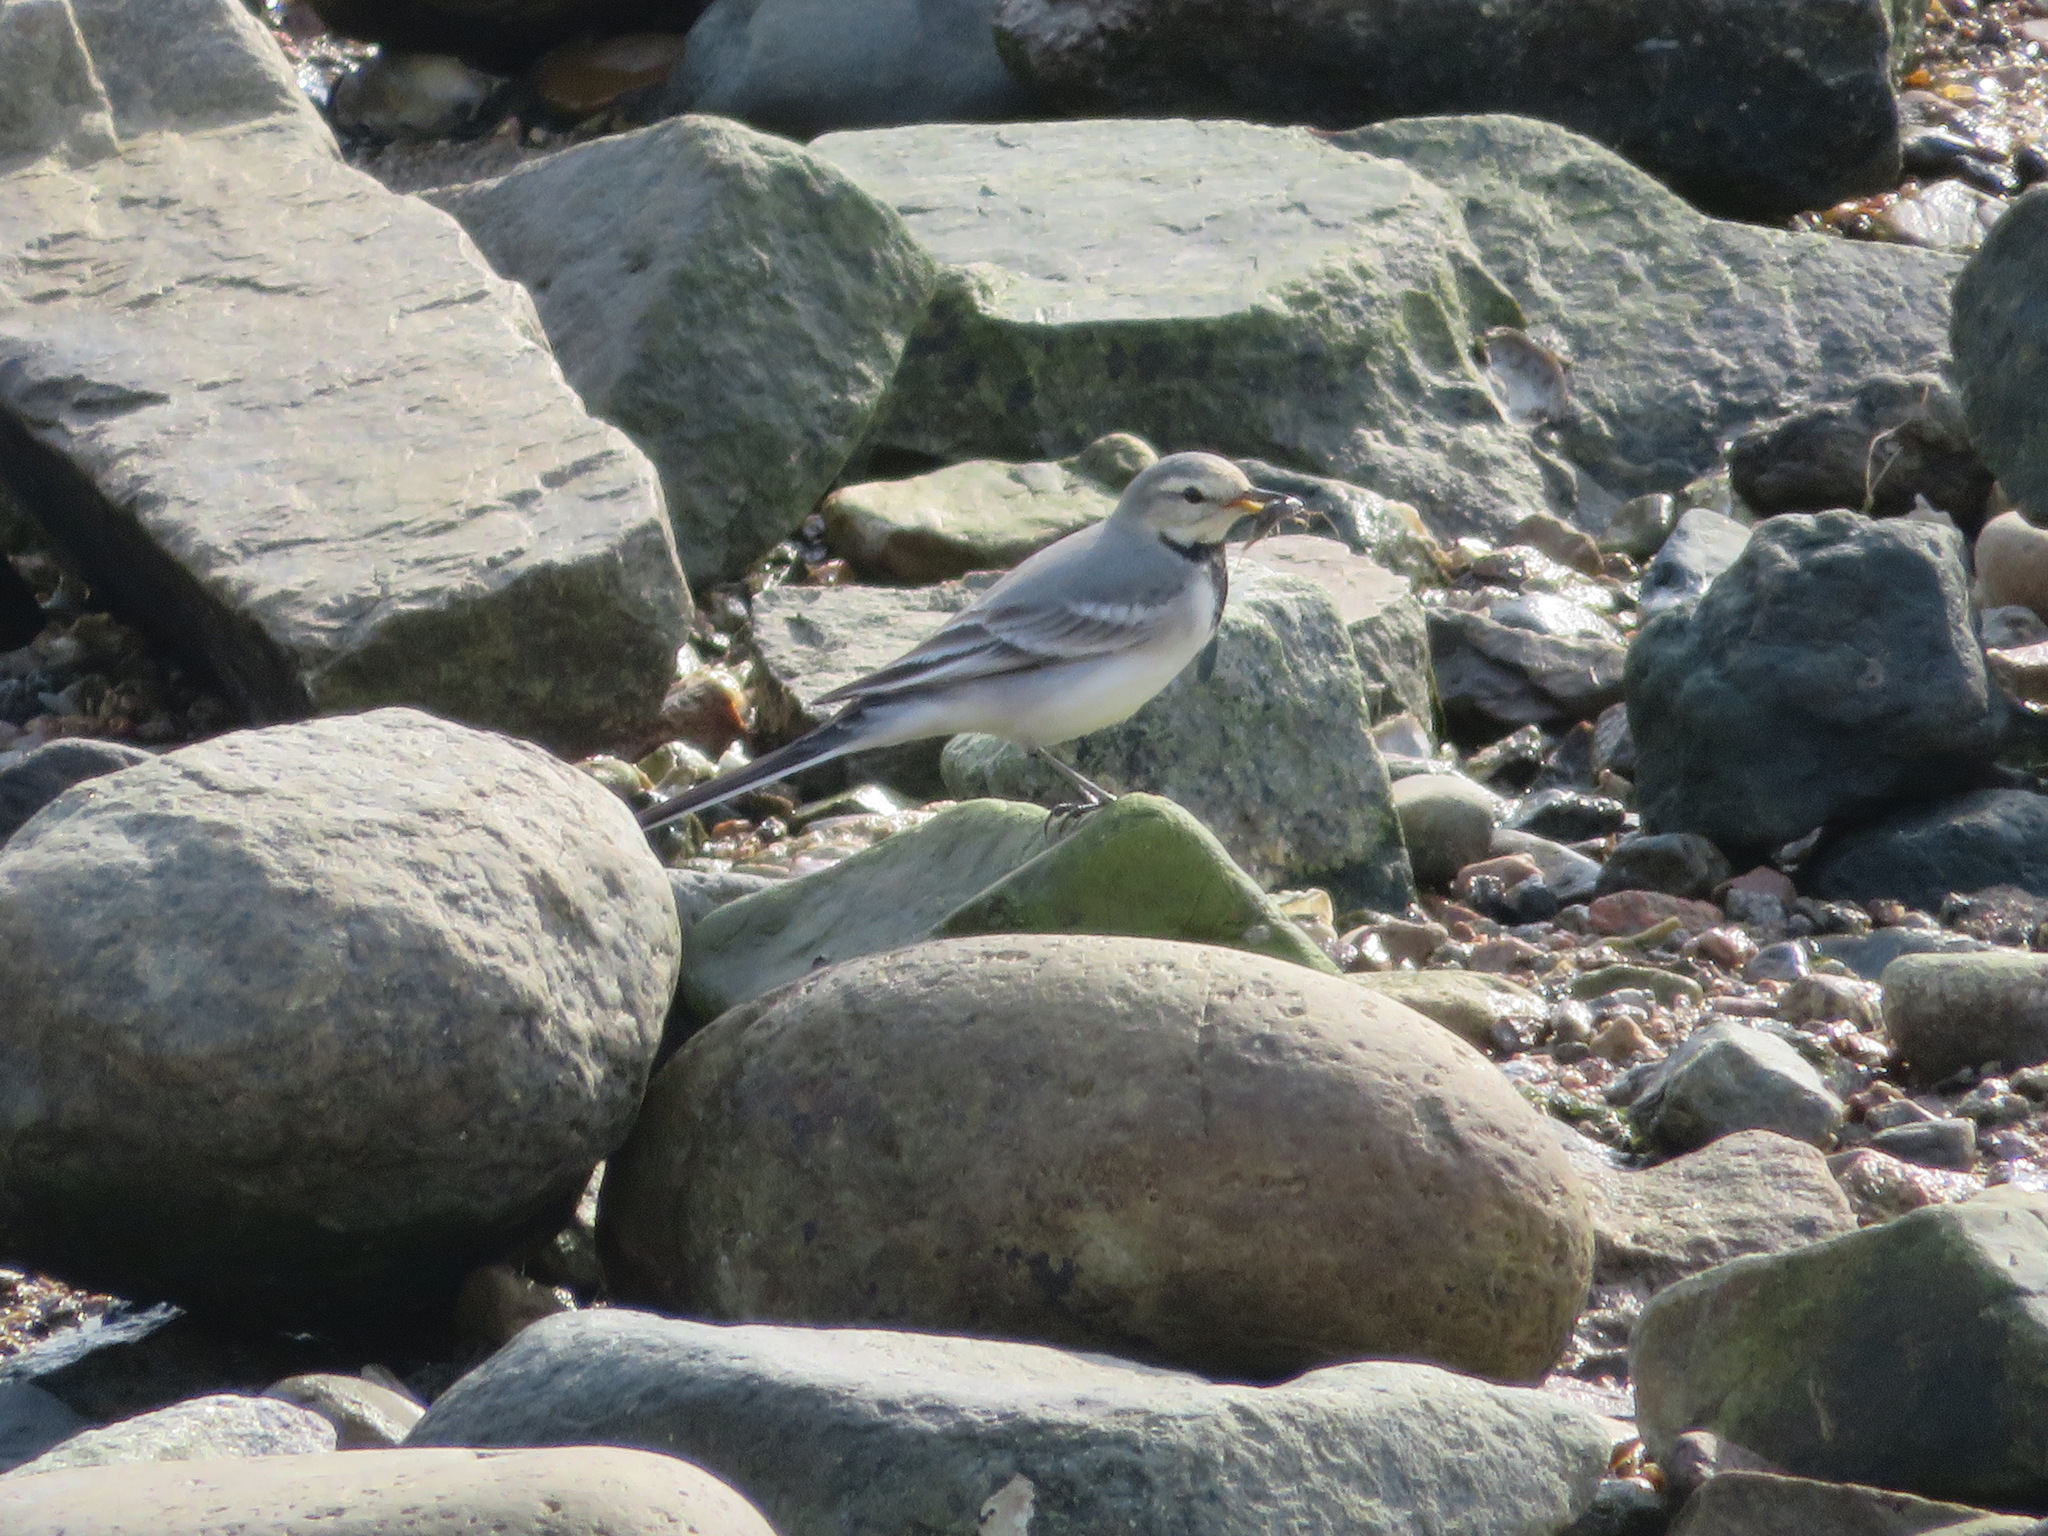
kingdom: Animalia
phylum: Chordata
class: Aves
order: Passeriformes
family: Motacillidae
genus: Motacilla
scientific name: Motacilla alba
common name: White wagtail
